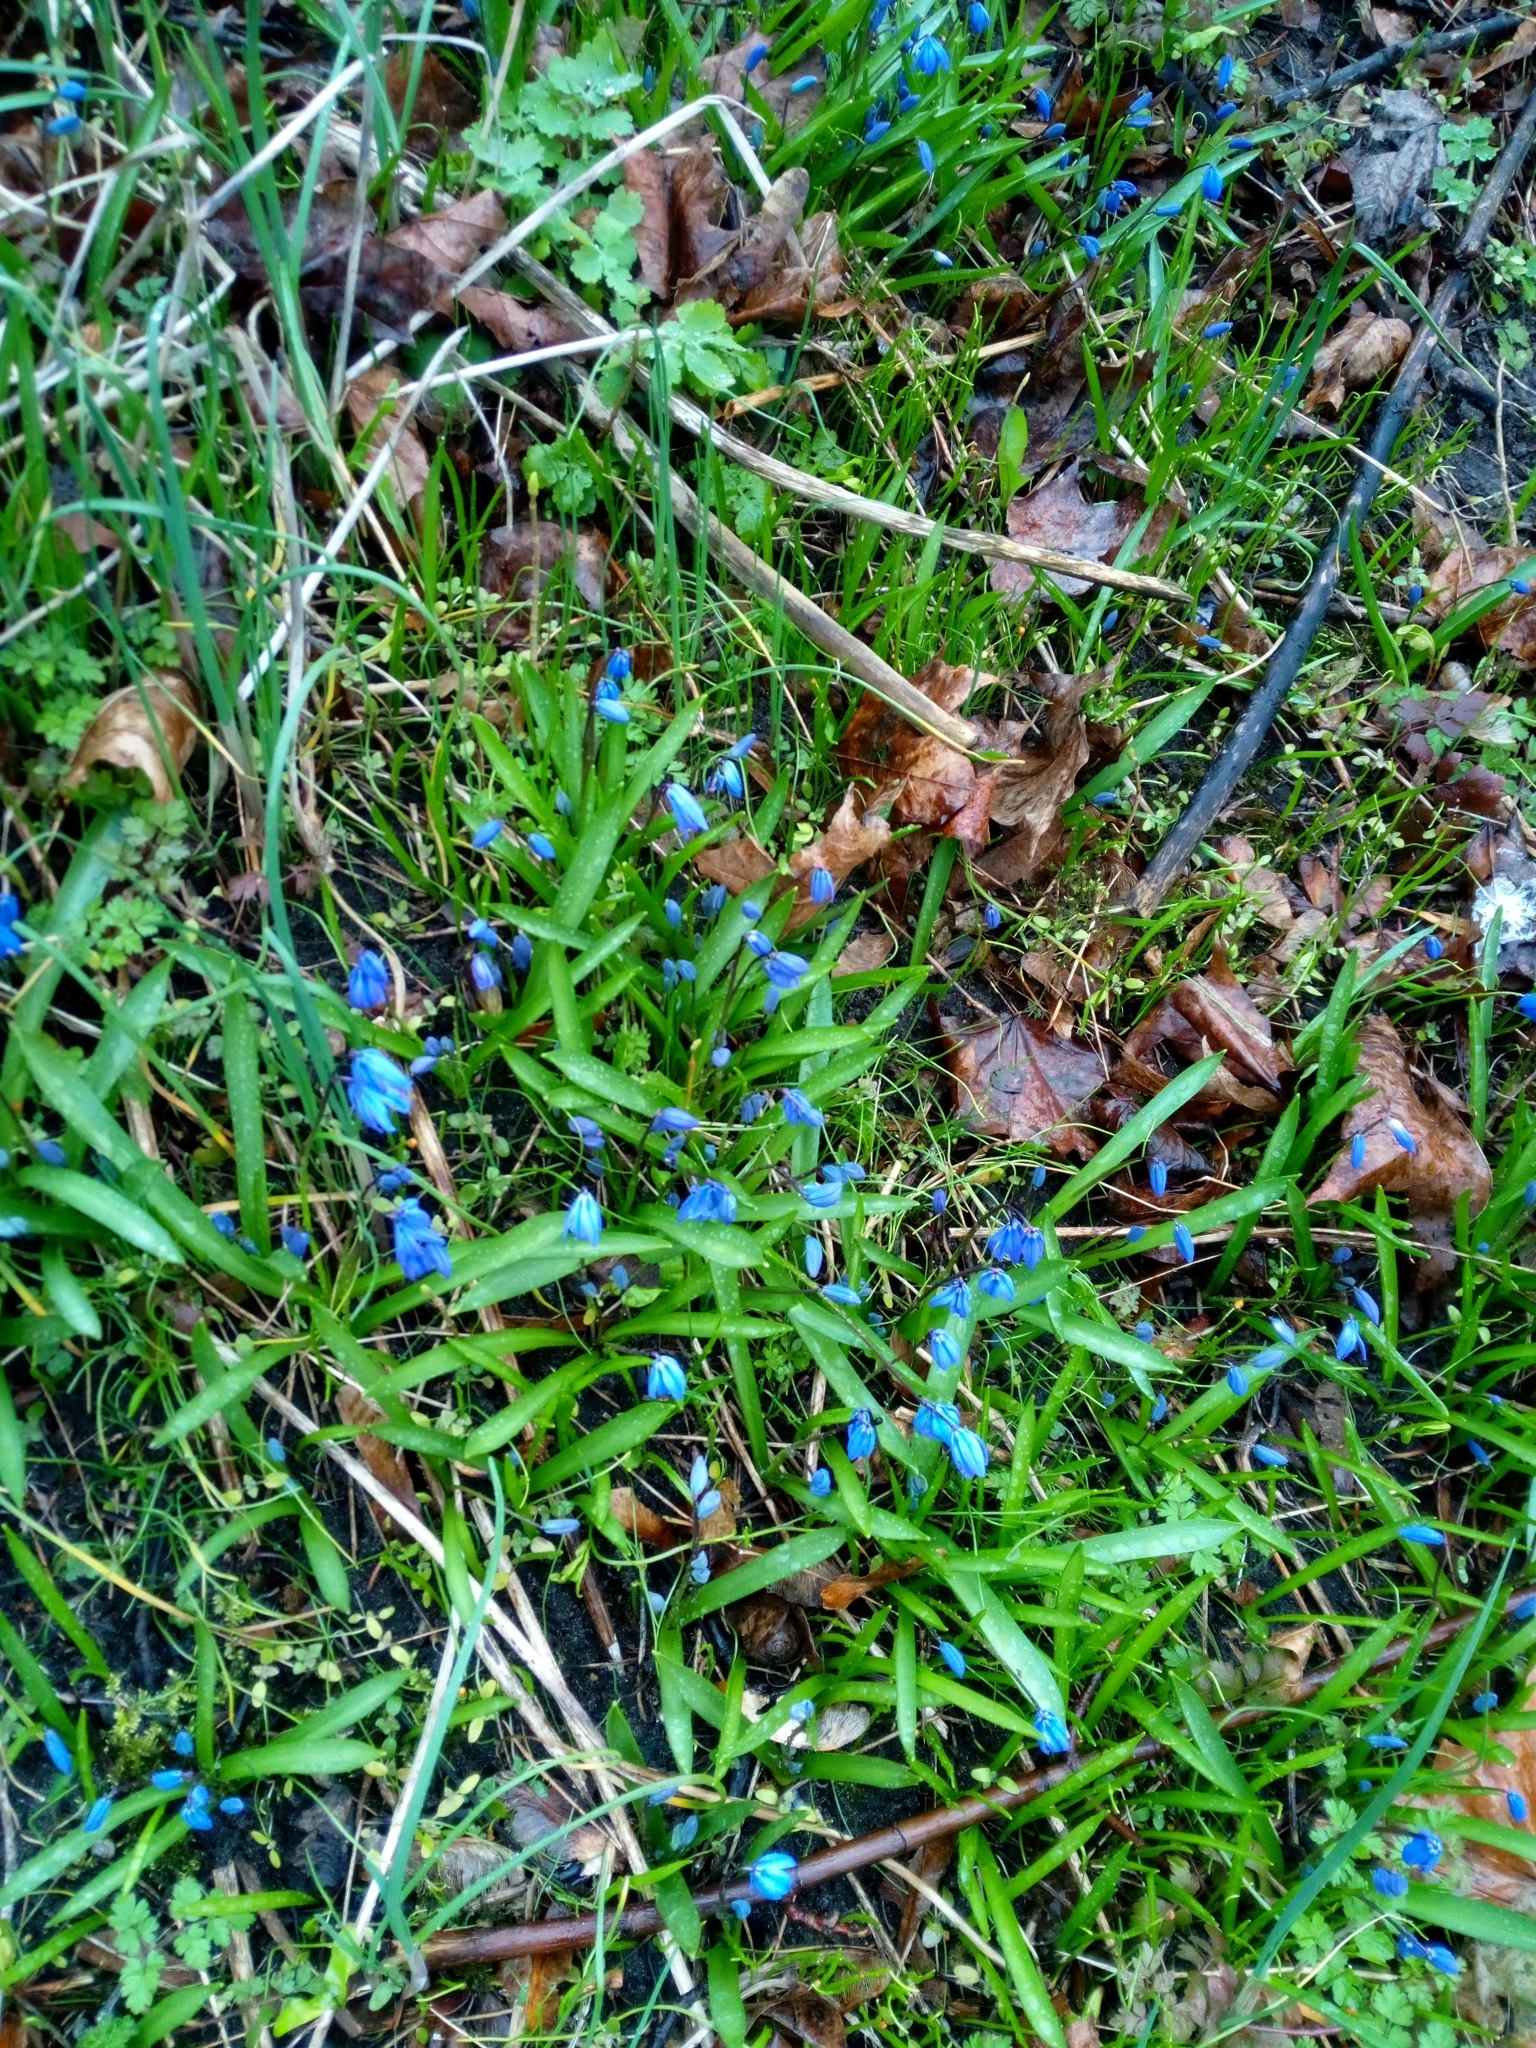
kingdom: Plantae
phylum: Tracheophyta
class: Liliopsida
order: Asparagales
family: Asparagaceae
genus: Scilla
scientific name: Scilla siberica
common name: Siberian squill
